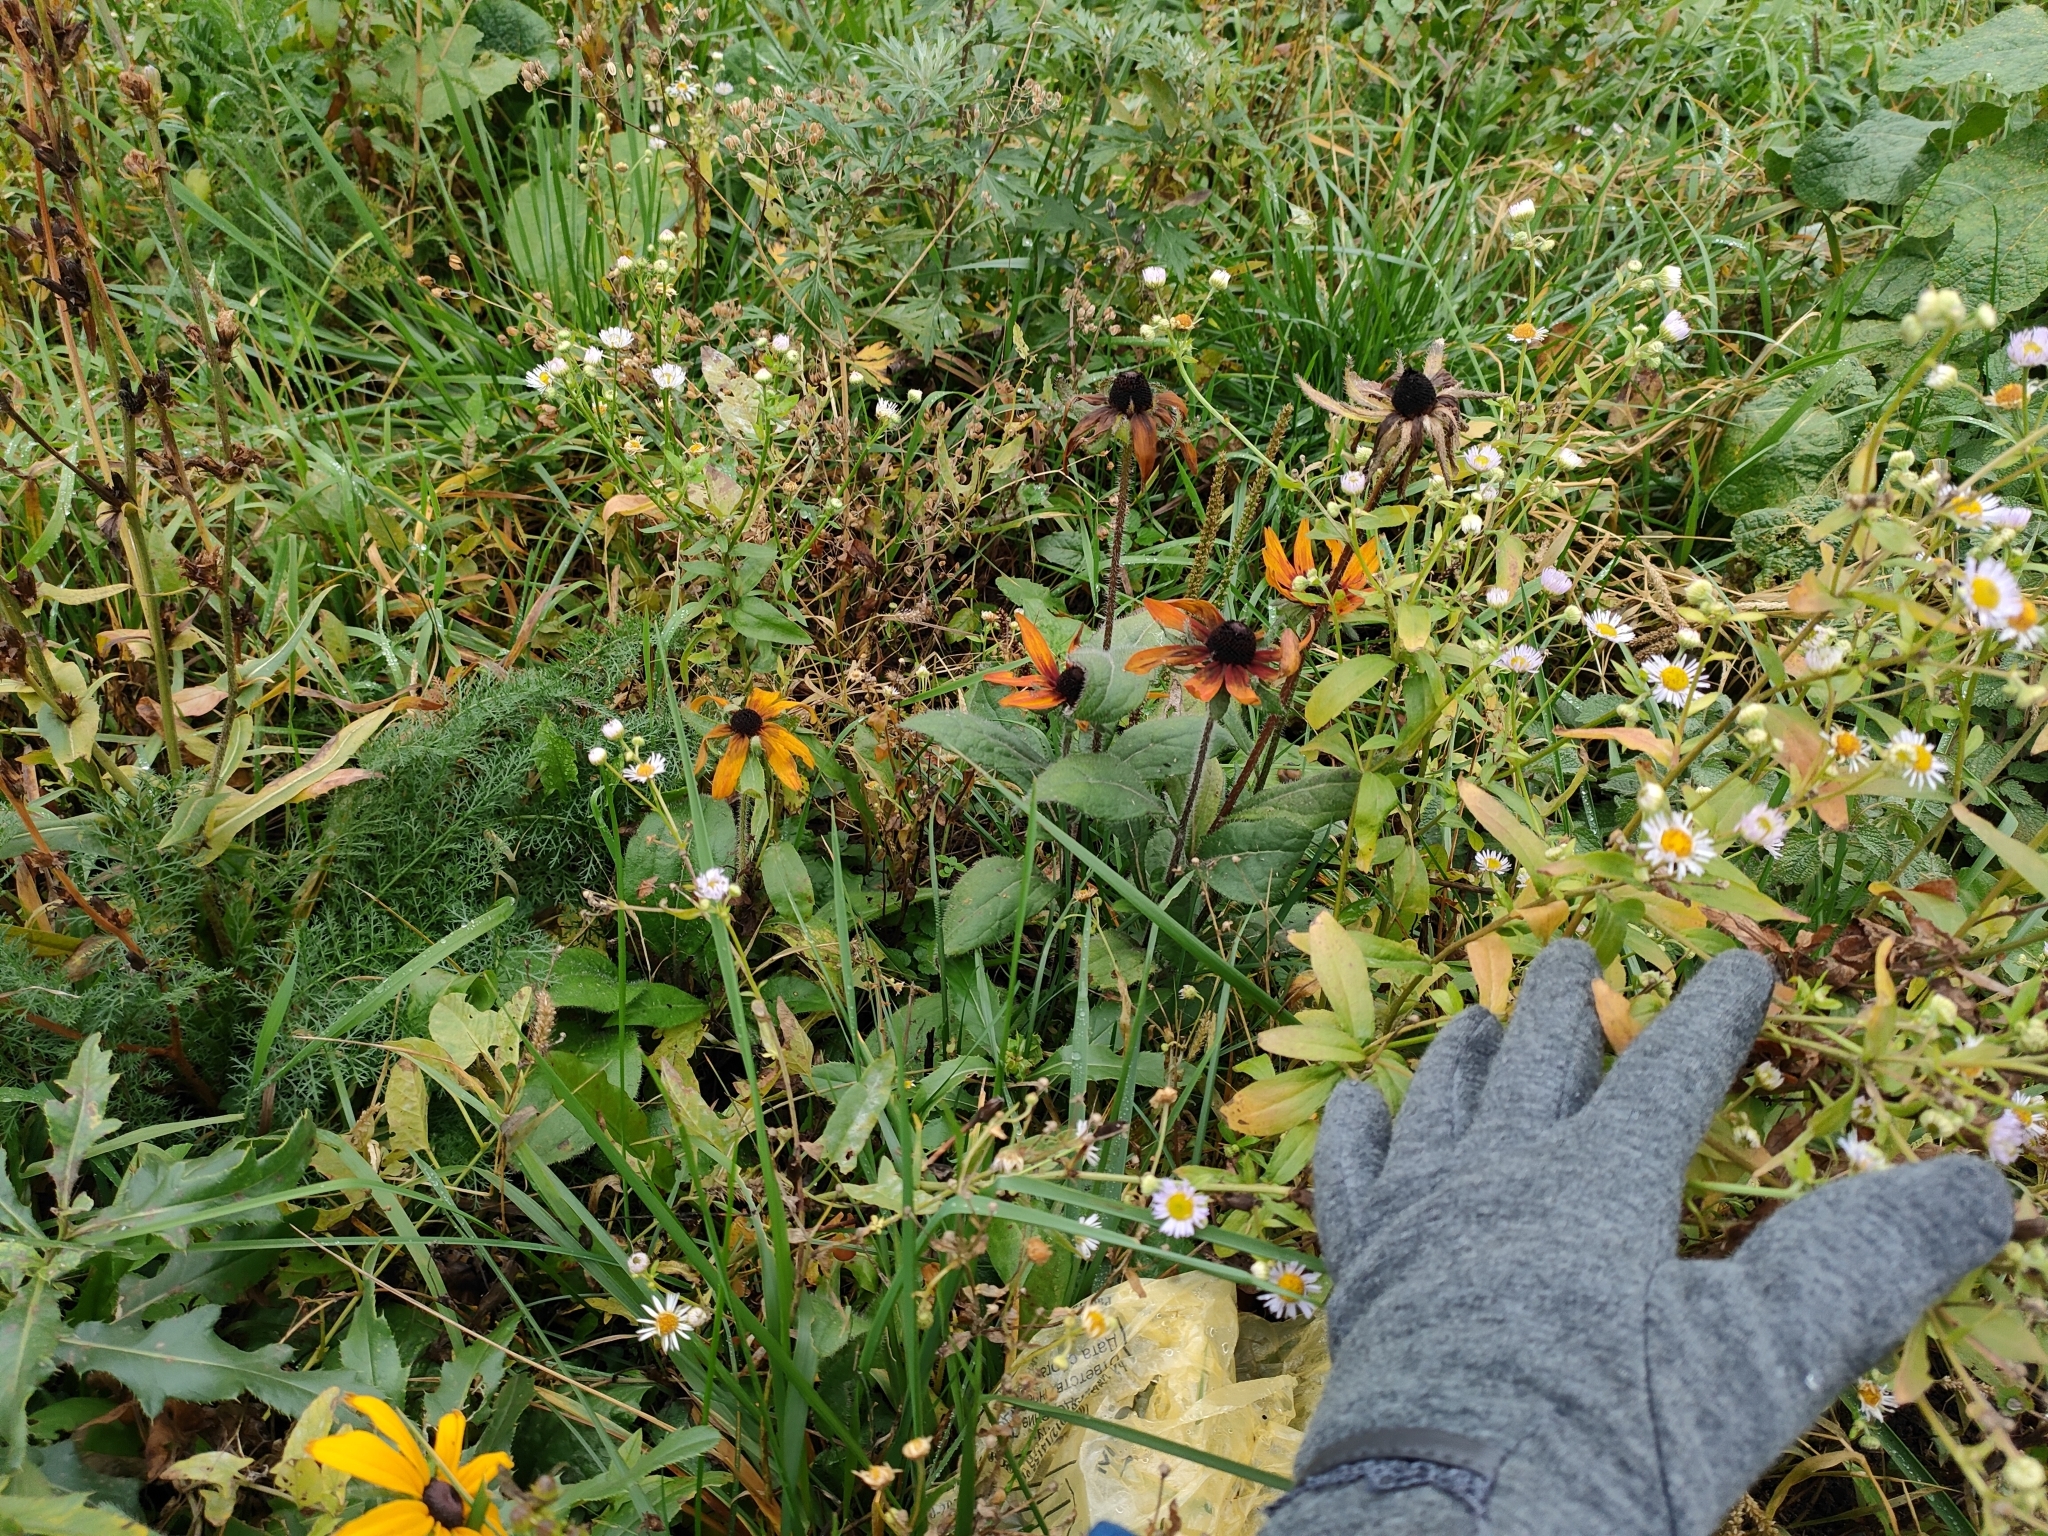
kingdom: Plantae
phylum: Tracheophyta
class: Magnoliopsida
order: Asterales
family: Asteraceae
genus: Rudbeckia
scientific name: Rudbeckia hirta
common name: Black-eyed-susan
